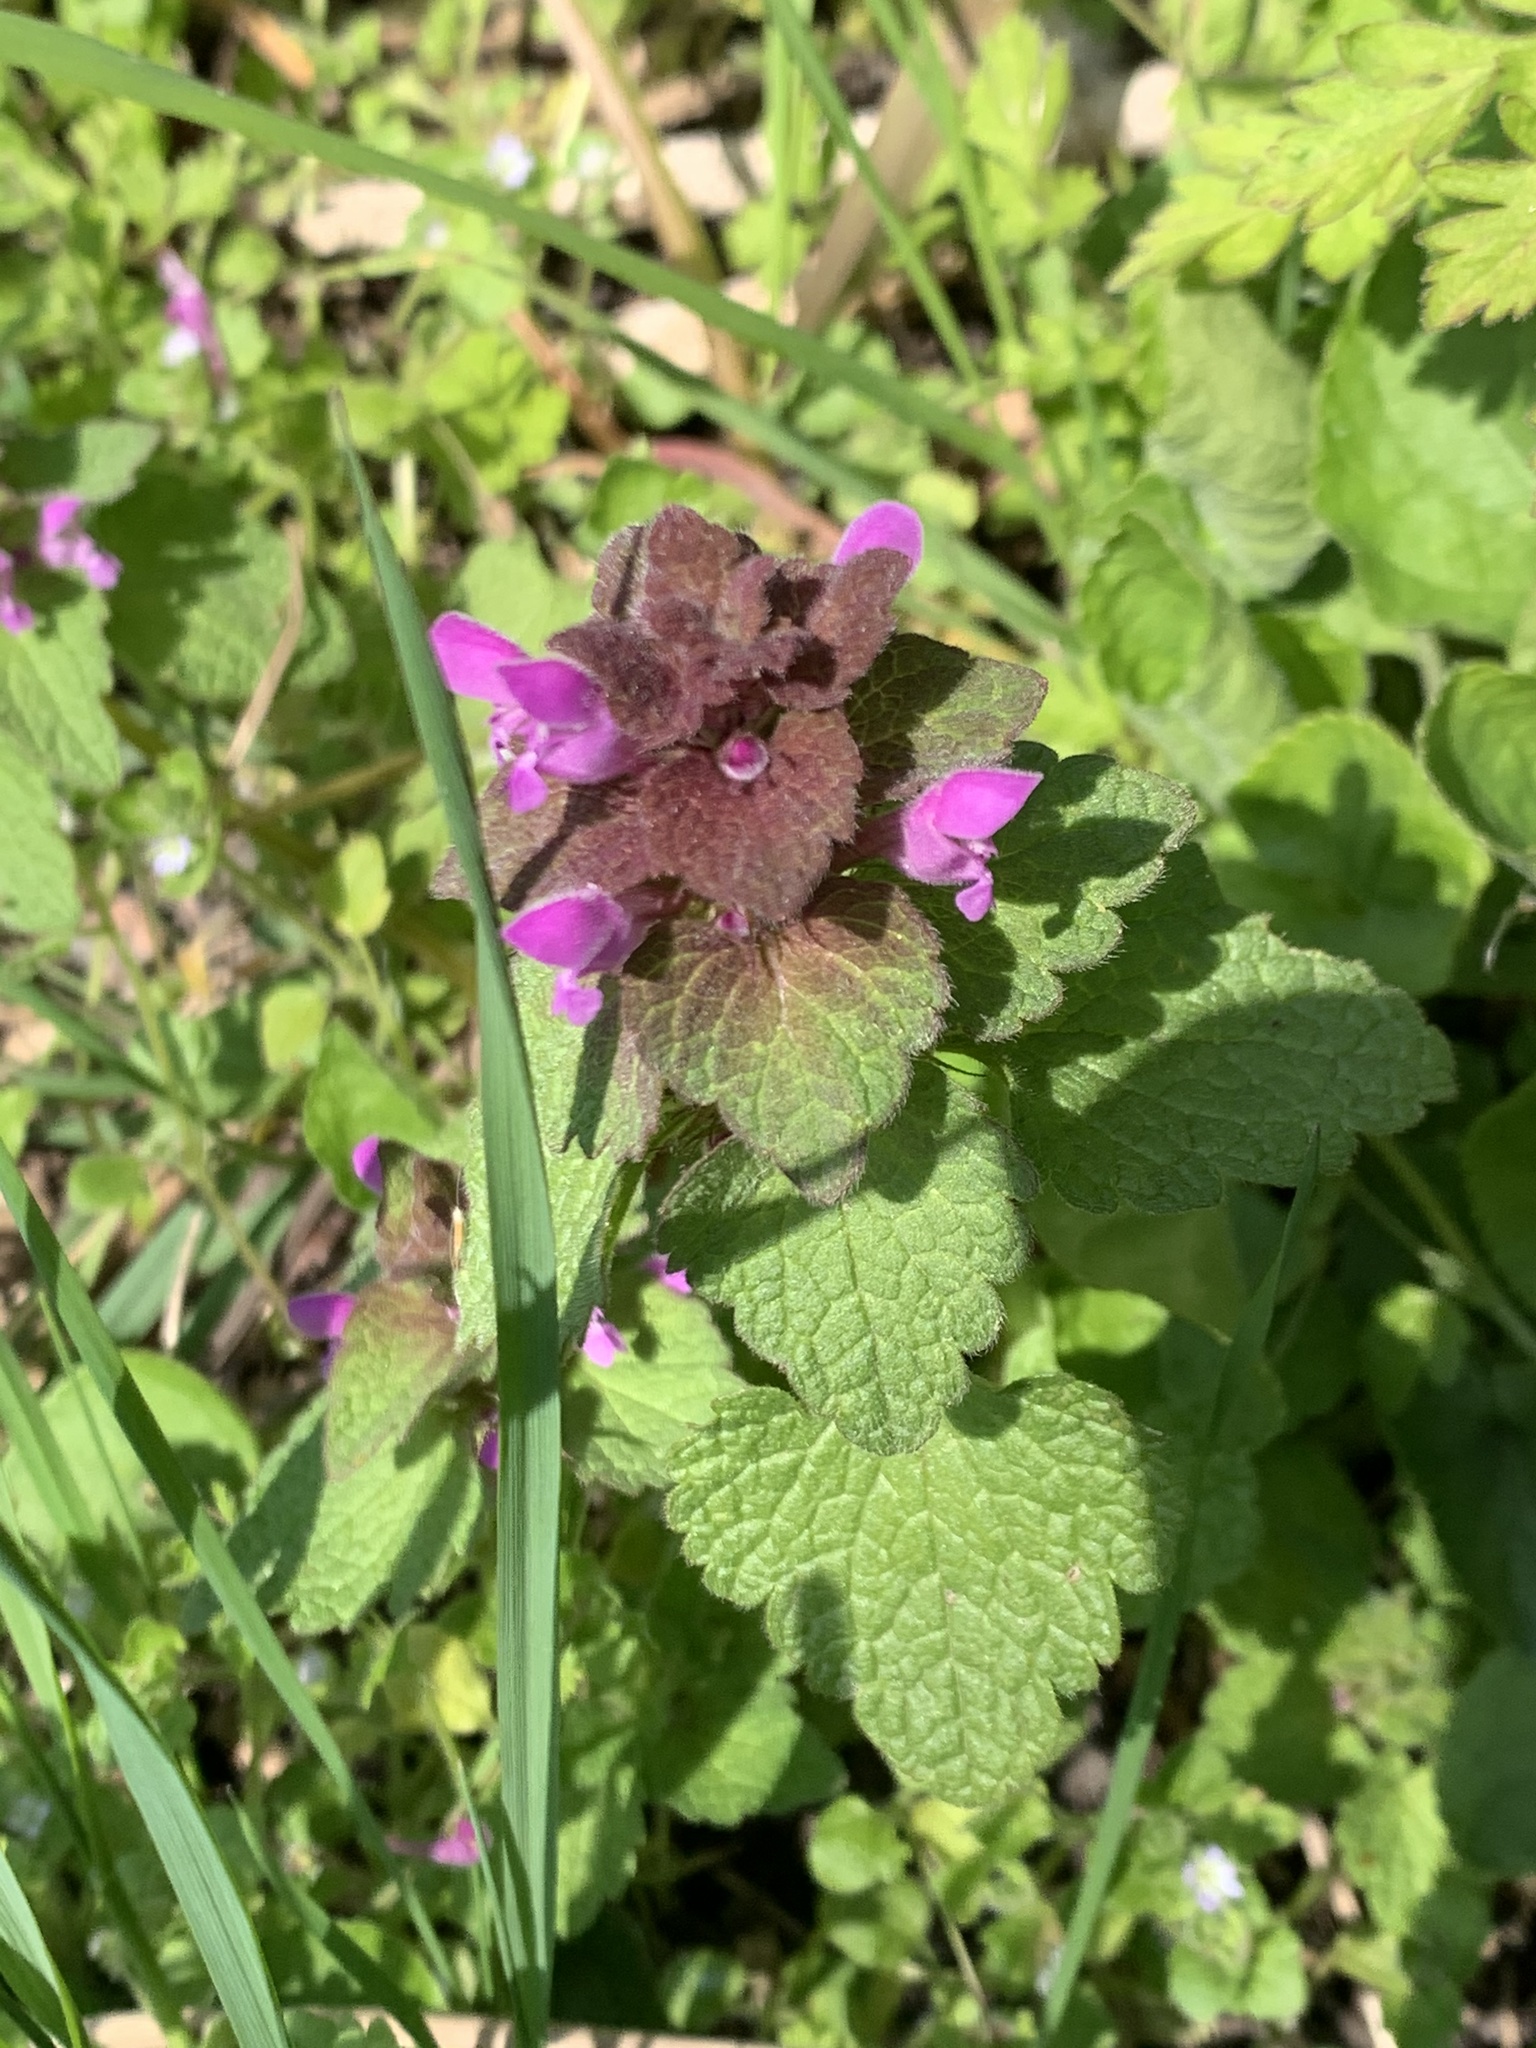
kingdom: Plantae
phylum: Tracheophyta
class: Magnoliopsida
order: Lamiales
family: Lamiaceae
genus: Lamium
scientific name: Lamium purpureum
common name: Red dead-nettle
